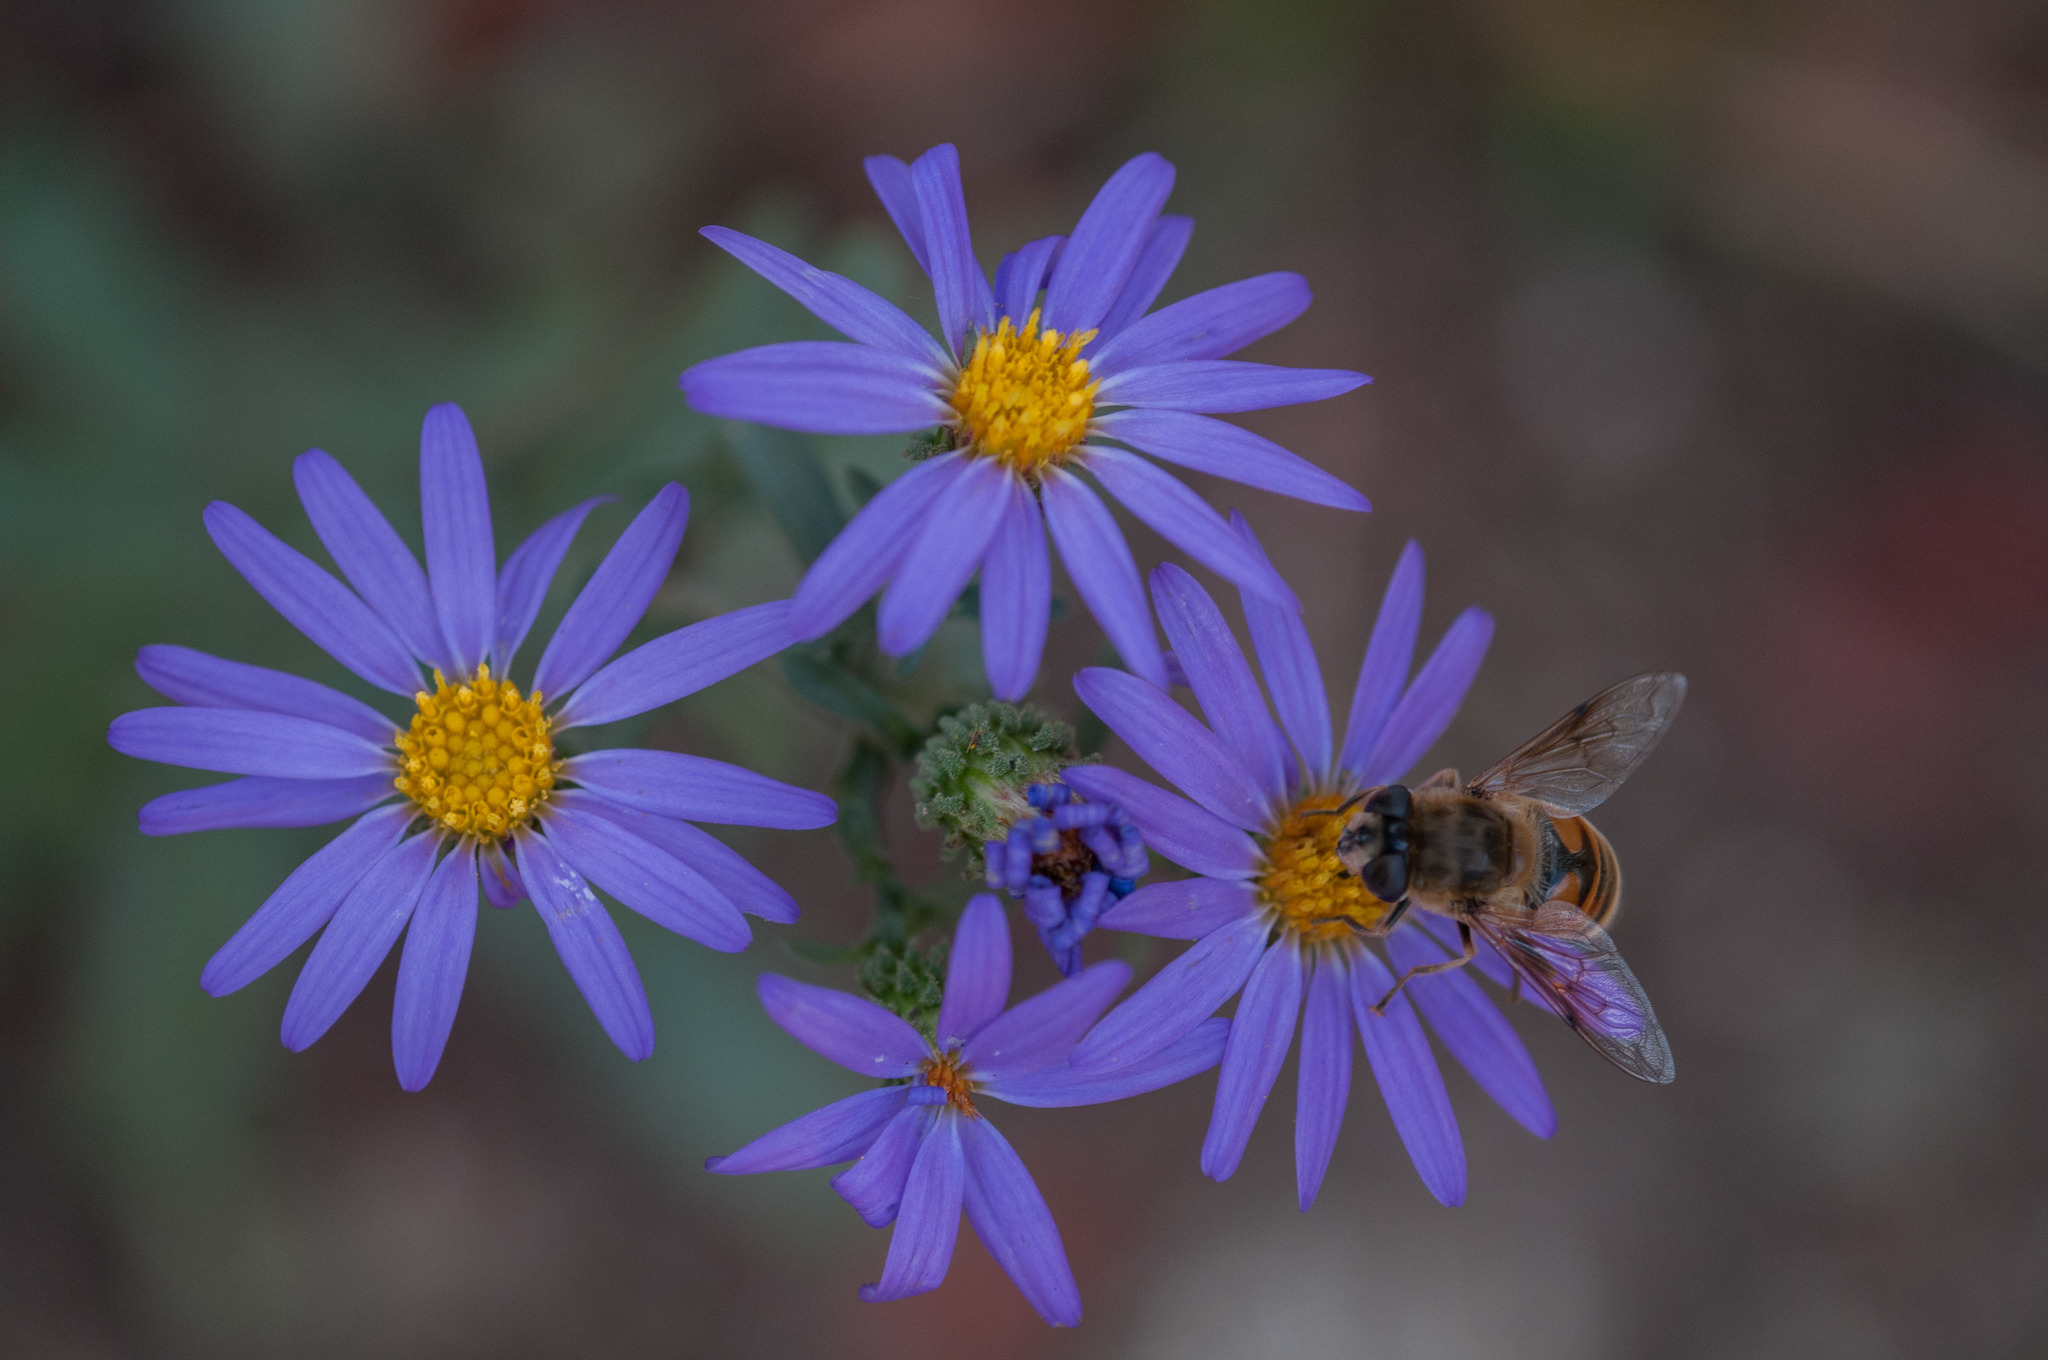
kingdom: Animalia
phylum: Arthropoda
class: Insecta
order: Diptera
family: Syrphidae
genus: Eristalis
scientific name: Eristalis tenax
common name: Drone fly
